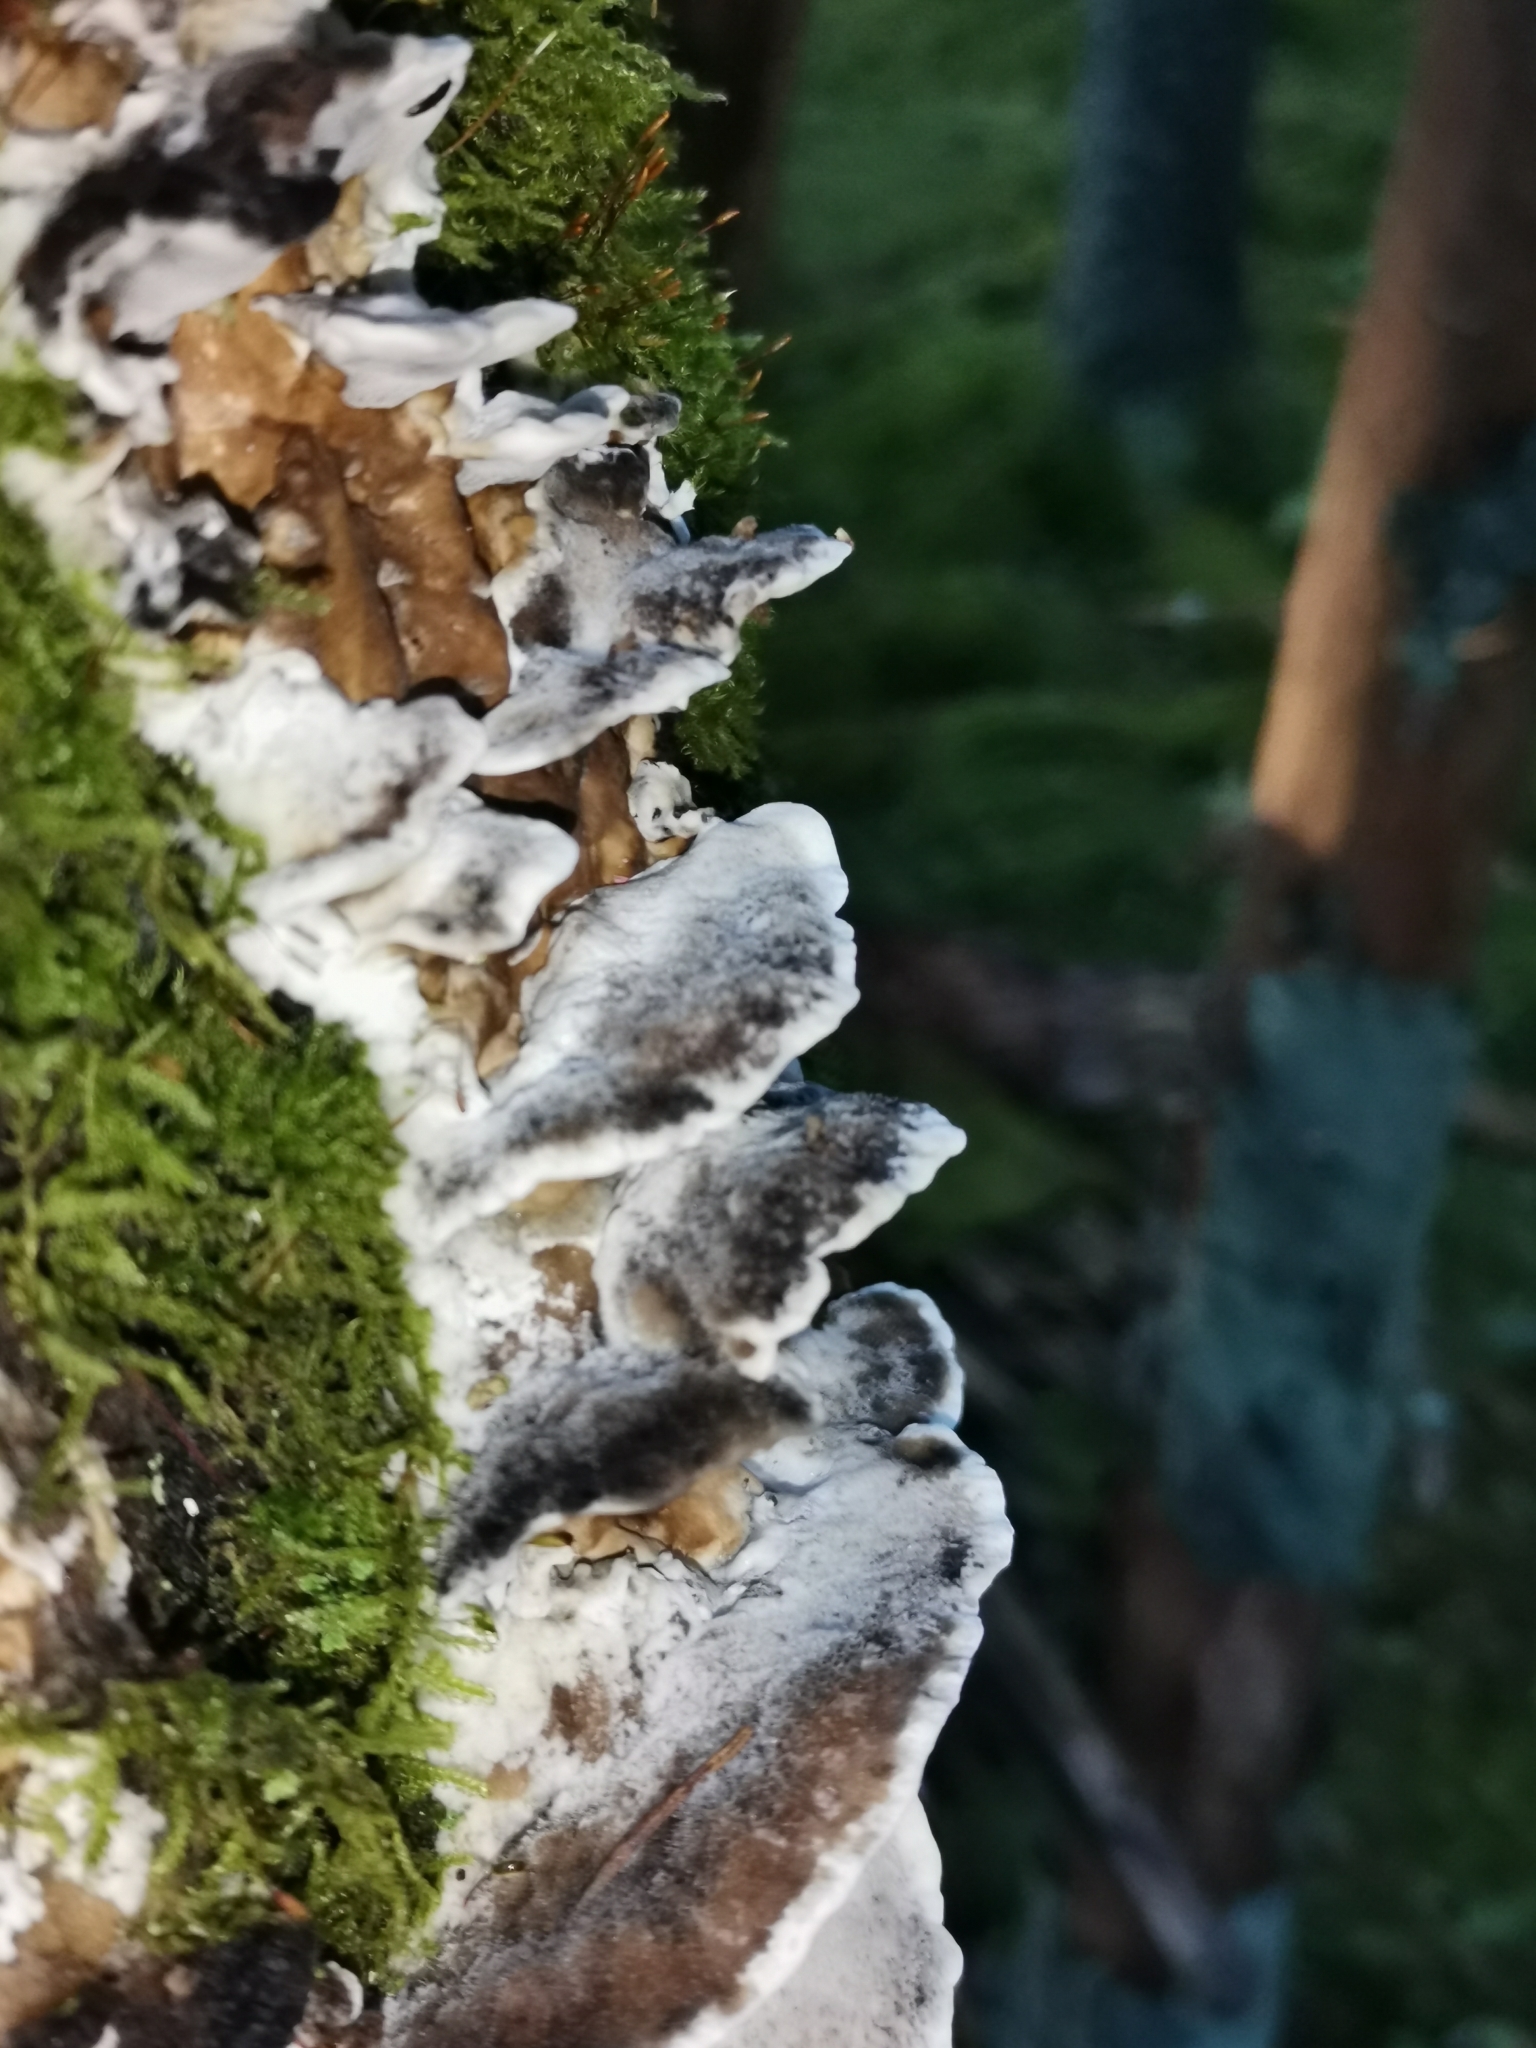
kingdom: Fungi
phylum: Basidiomycota
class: Agaricomycetes
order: Polyporales
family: Phanerochaetaceae
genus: Bjerkandera
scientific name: Bjerkandera adusta
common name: Smoky bracket
